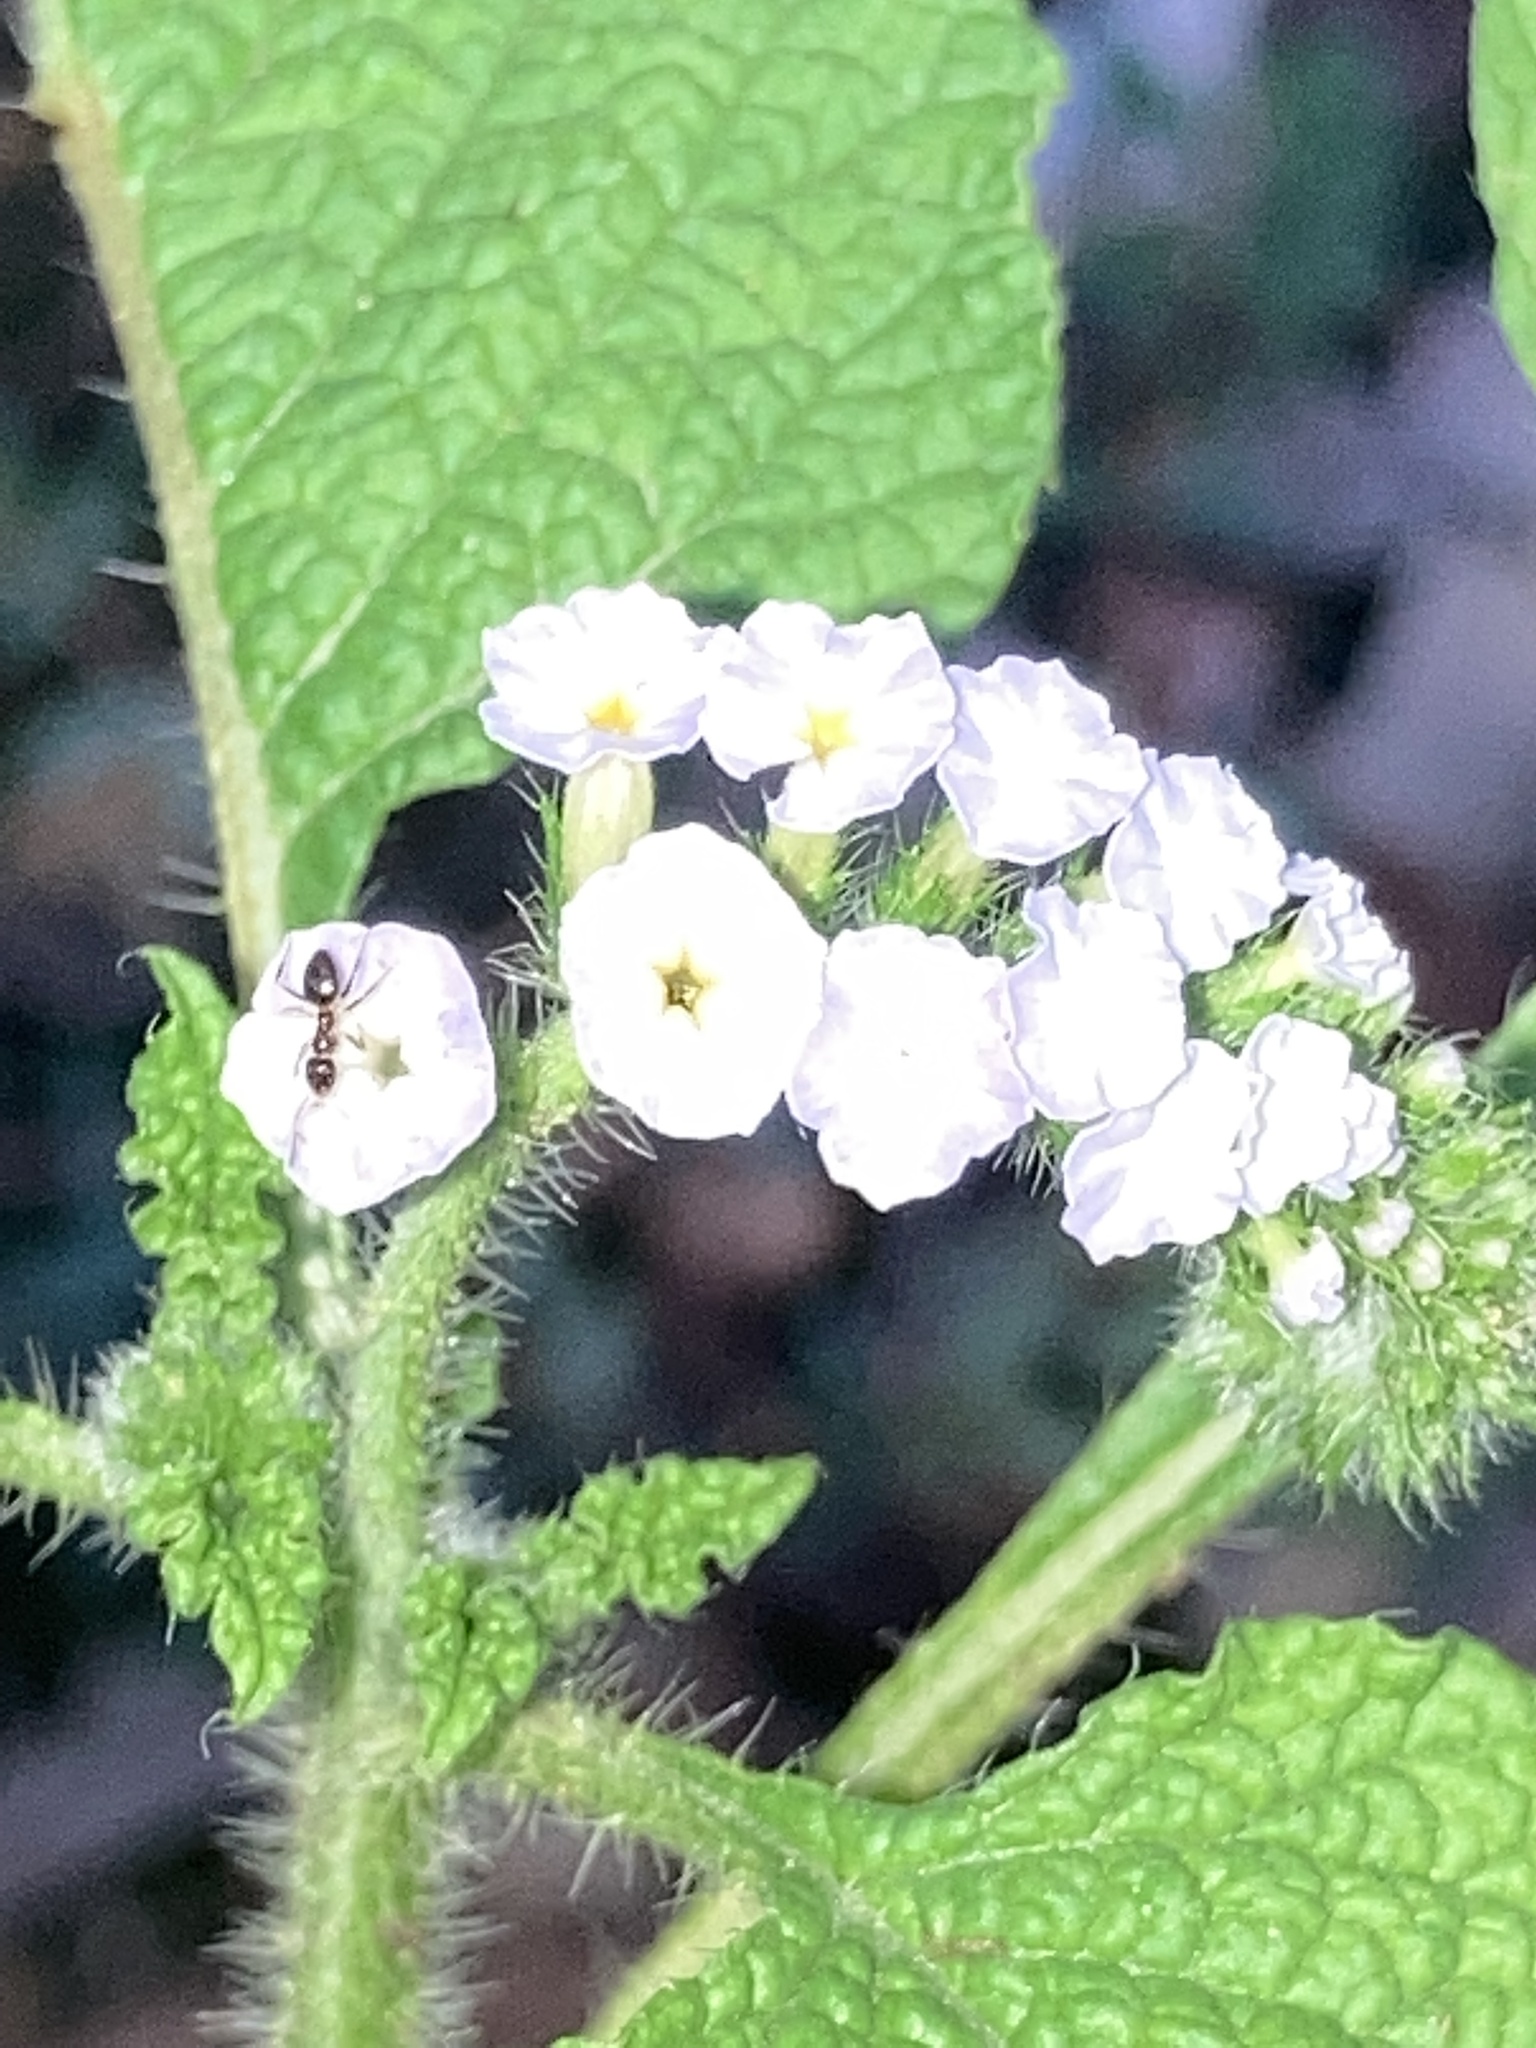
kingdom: Plantae
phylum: Tracheophyta
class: Magnoliopsida
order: Boraginales
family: Heliotropiaceae
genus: Heliotropium
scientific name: Heliotropium indicum
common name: Indian heliotrope
